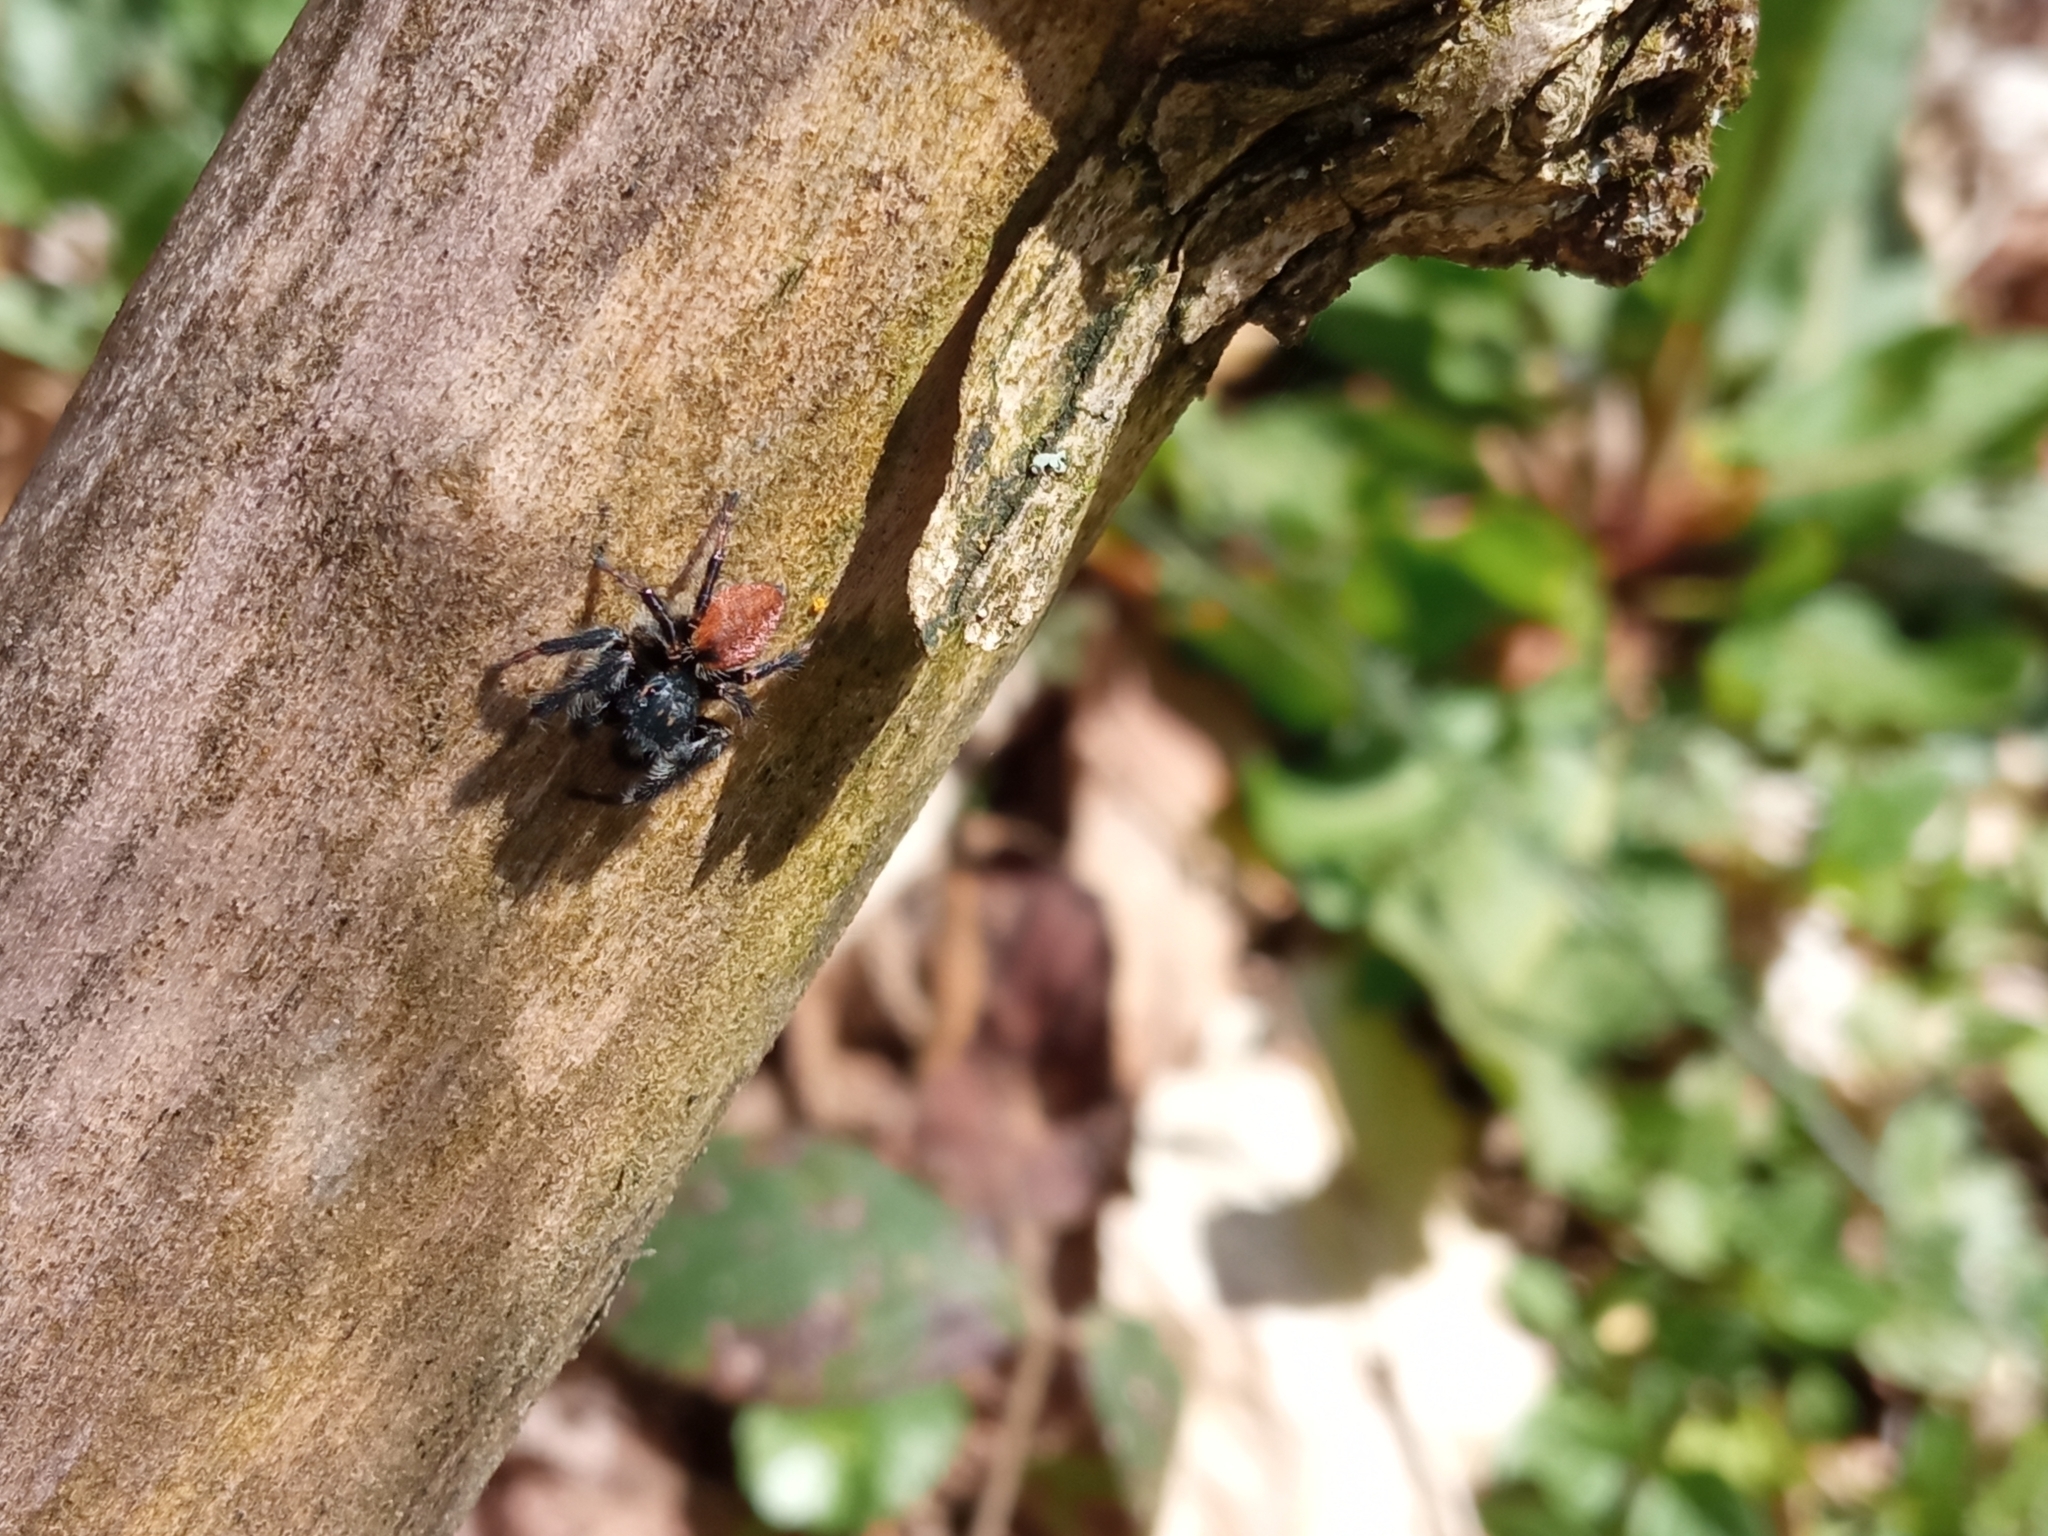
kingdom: Animalia
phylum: Arthropoda
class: Arachnida
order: Araneae
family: Salticidae
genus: Carrhotus
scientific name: Carrhotus xanthogramma
